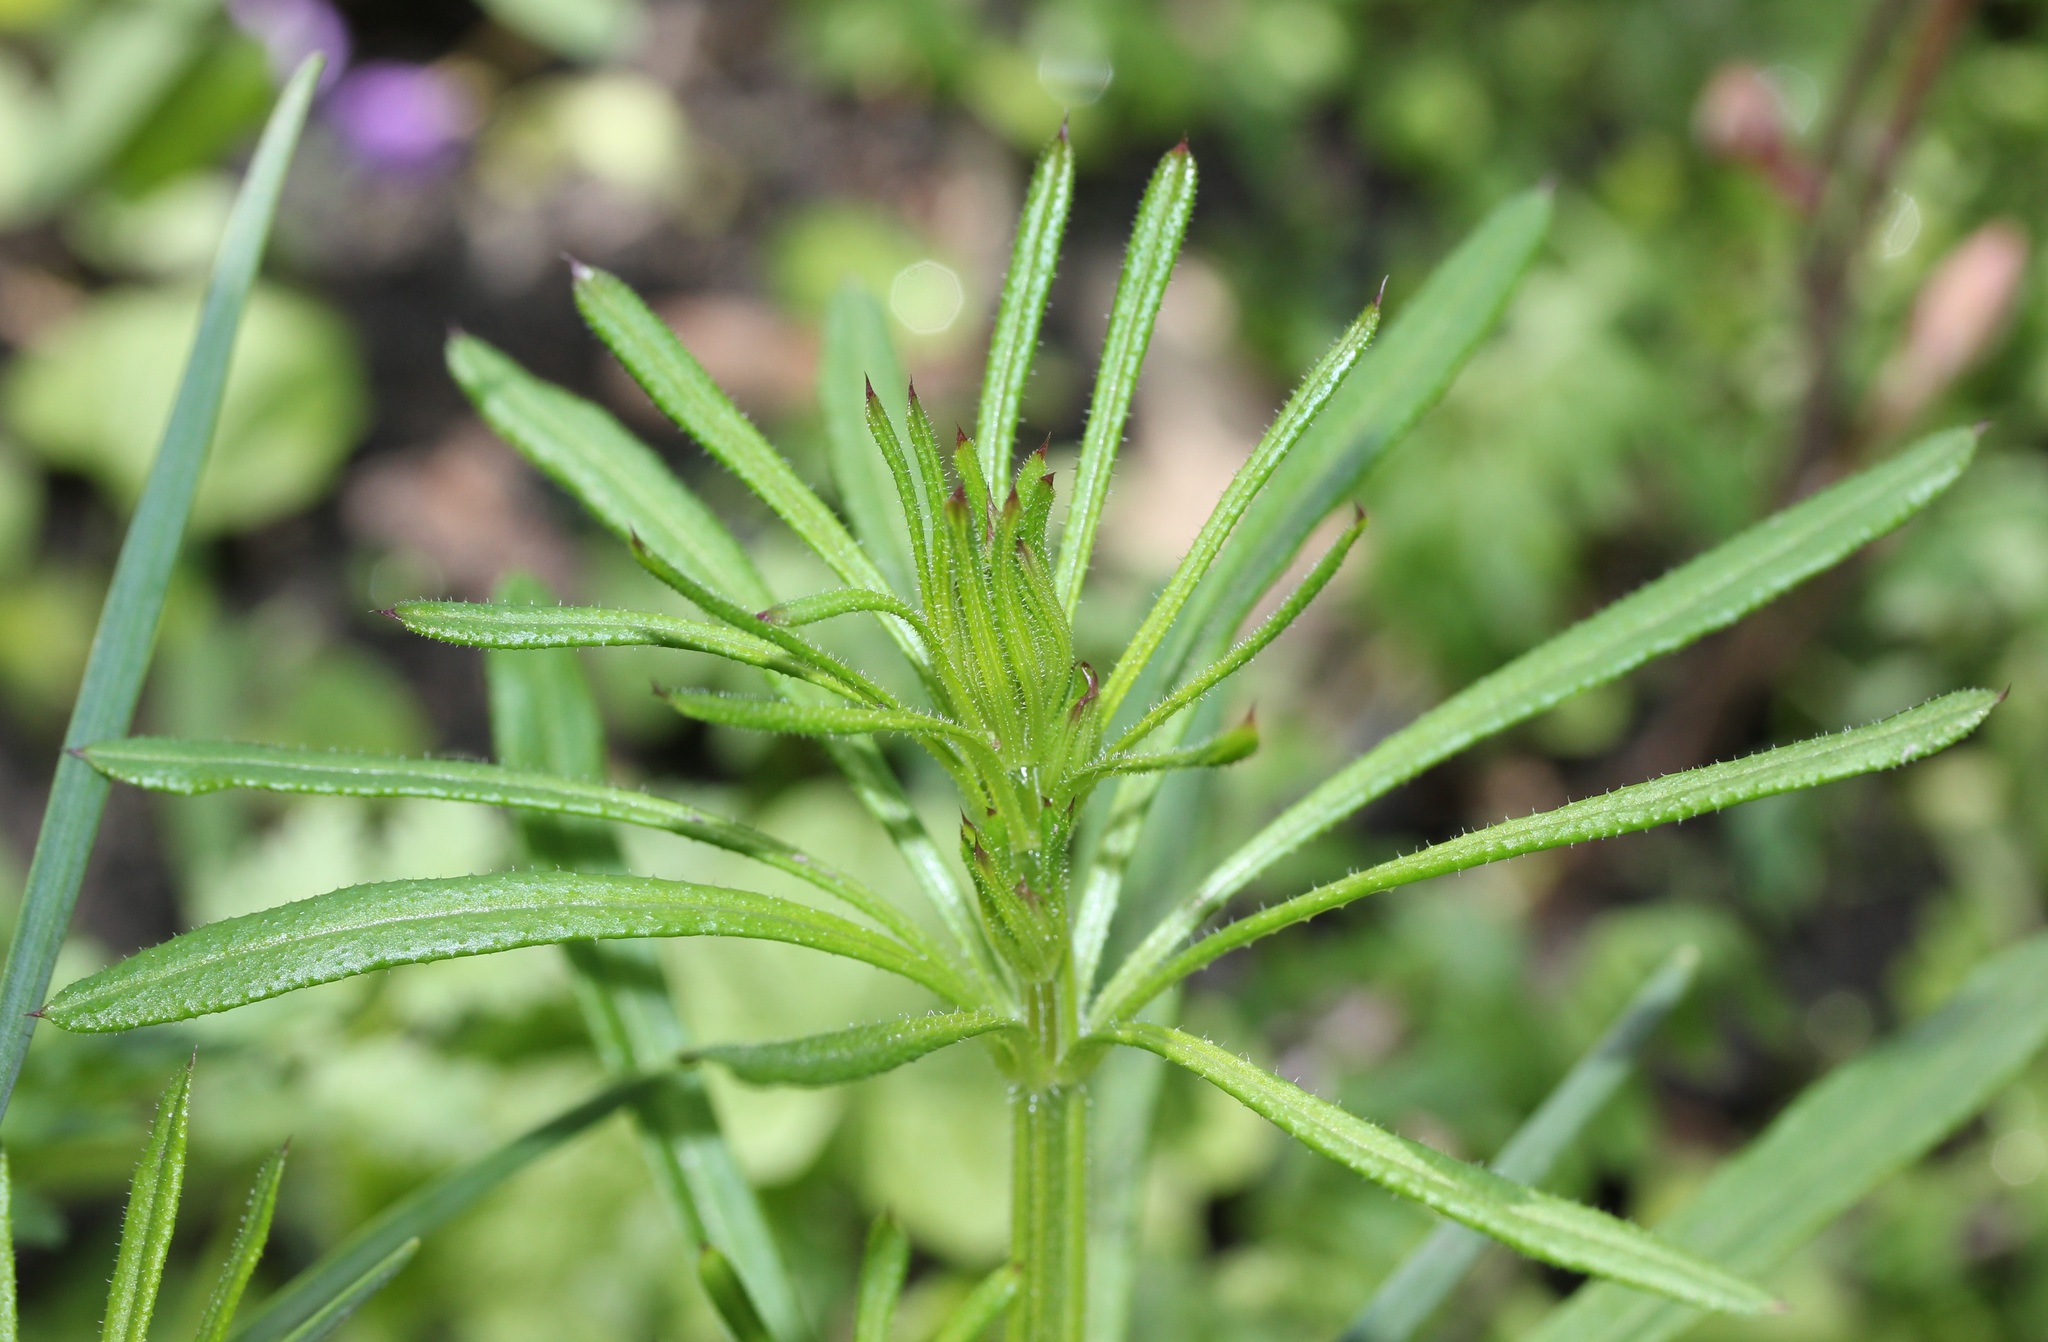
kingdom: Plantae
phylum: Tracheophyta
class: Magnoliopsida
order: Gentianales
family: Rubiaceae
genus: Galium
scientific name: Galium aparine
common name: Cleavers
